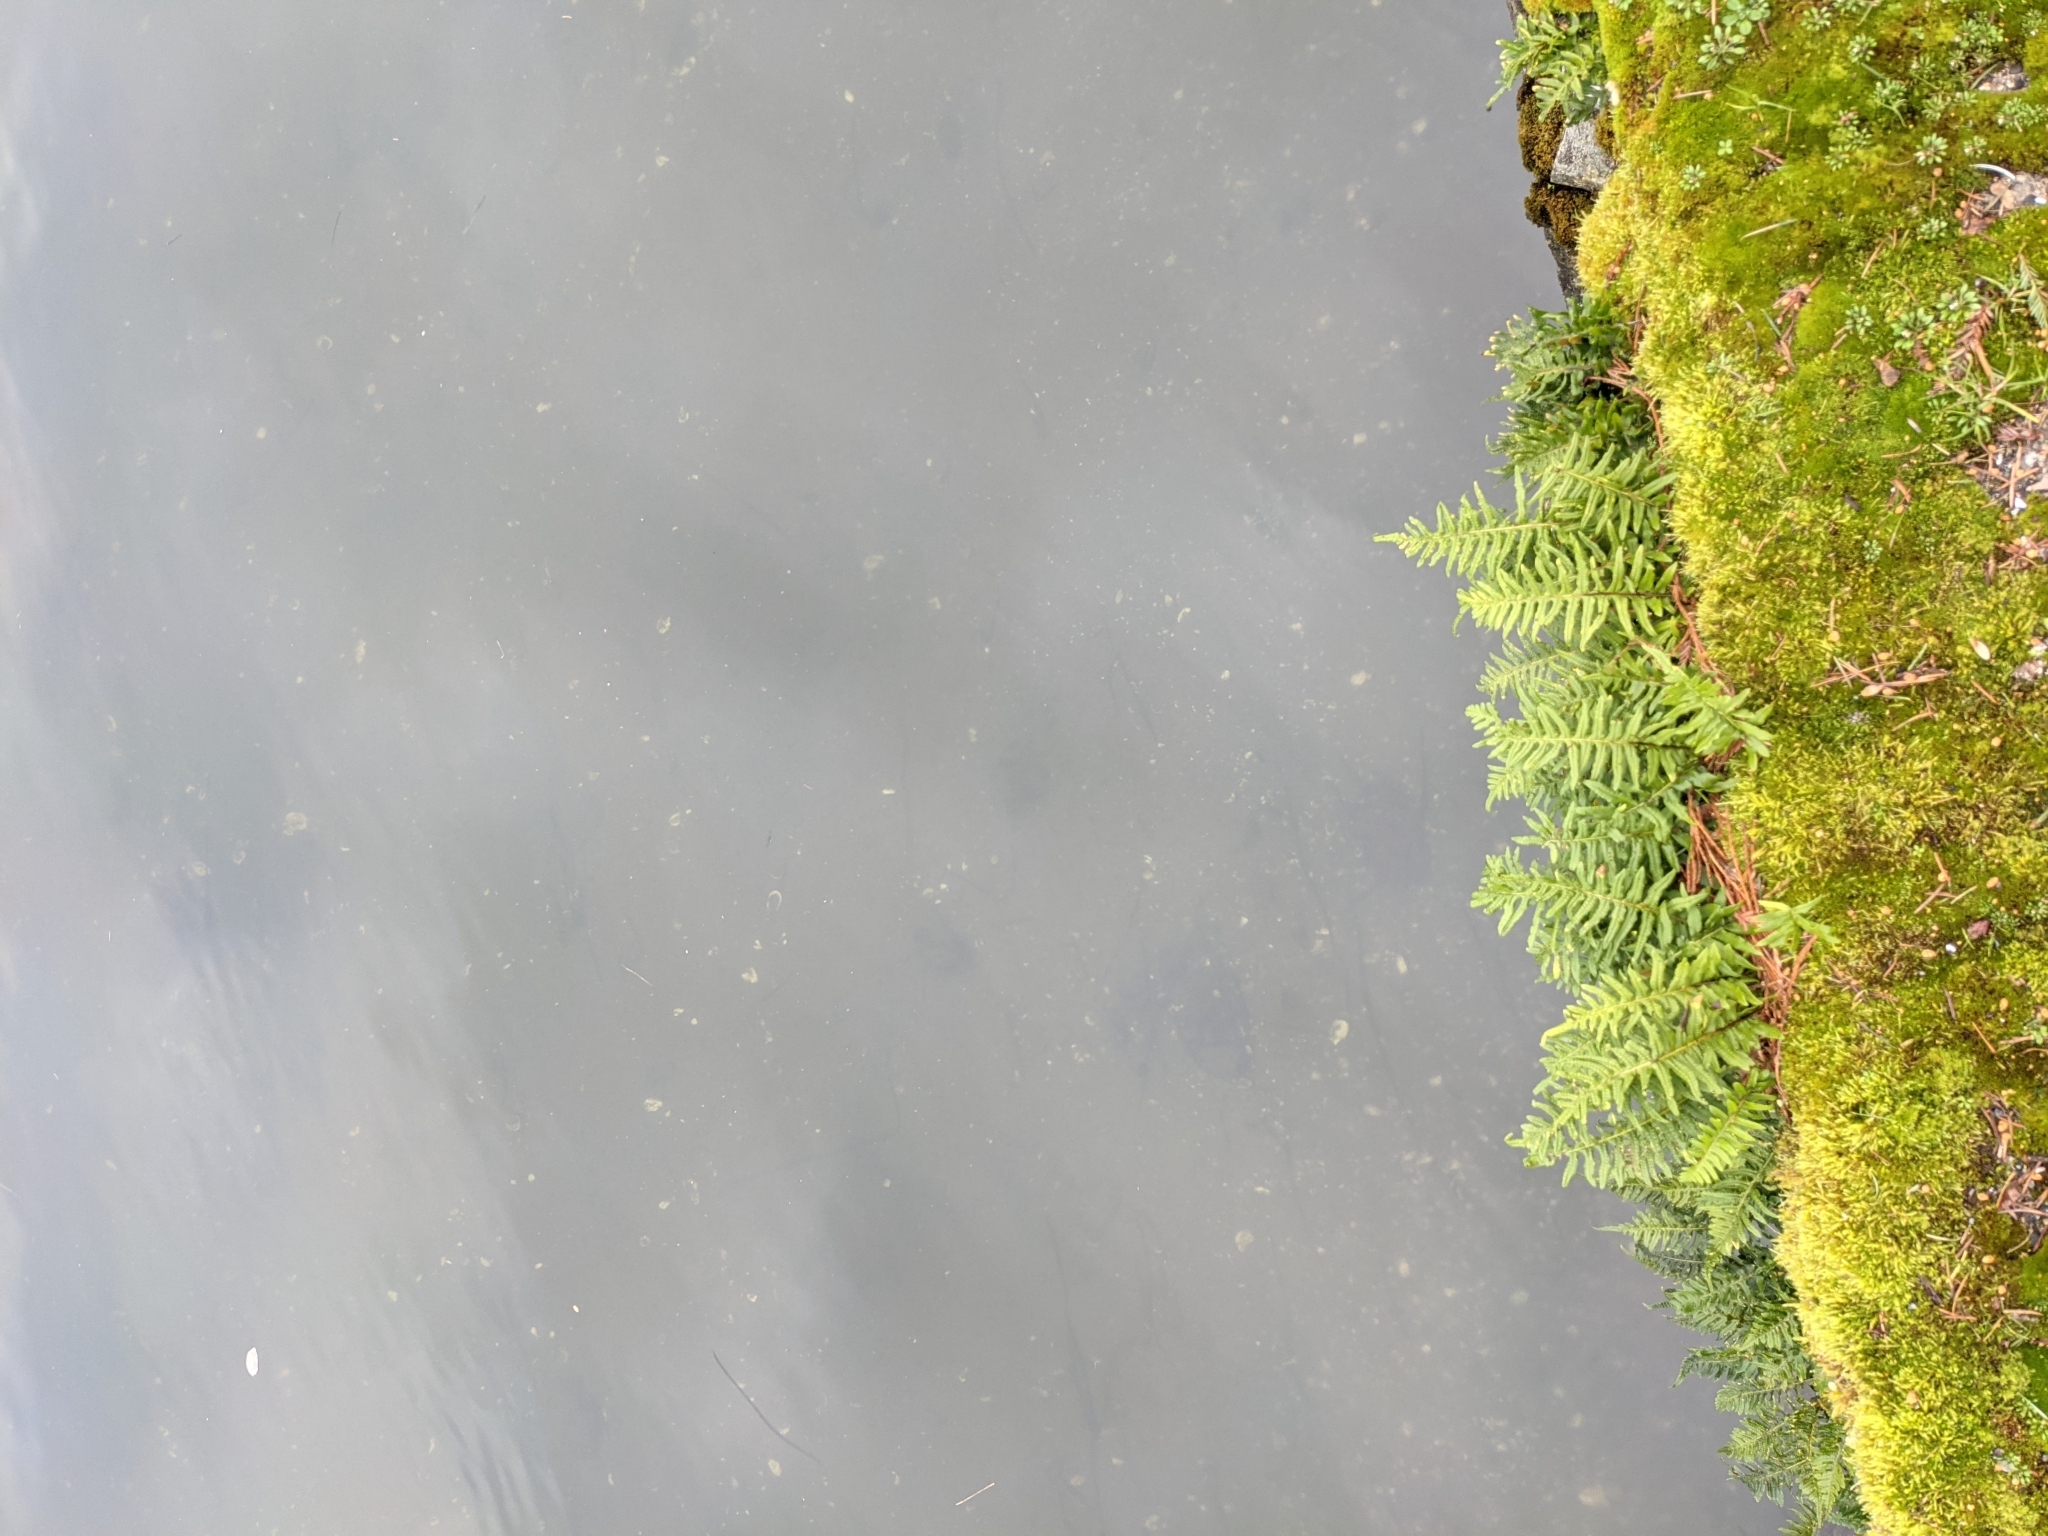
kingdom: Plantae
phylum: Tracheophyta
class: Polypodiopsida
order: Polypodiales
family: Polypodiaceae
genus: Polypodium
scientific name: Polypodium glycyrrhiza
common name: Licorice fern
